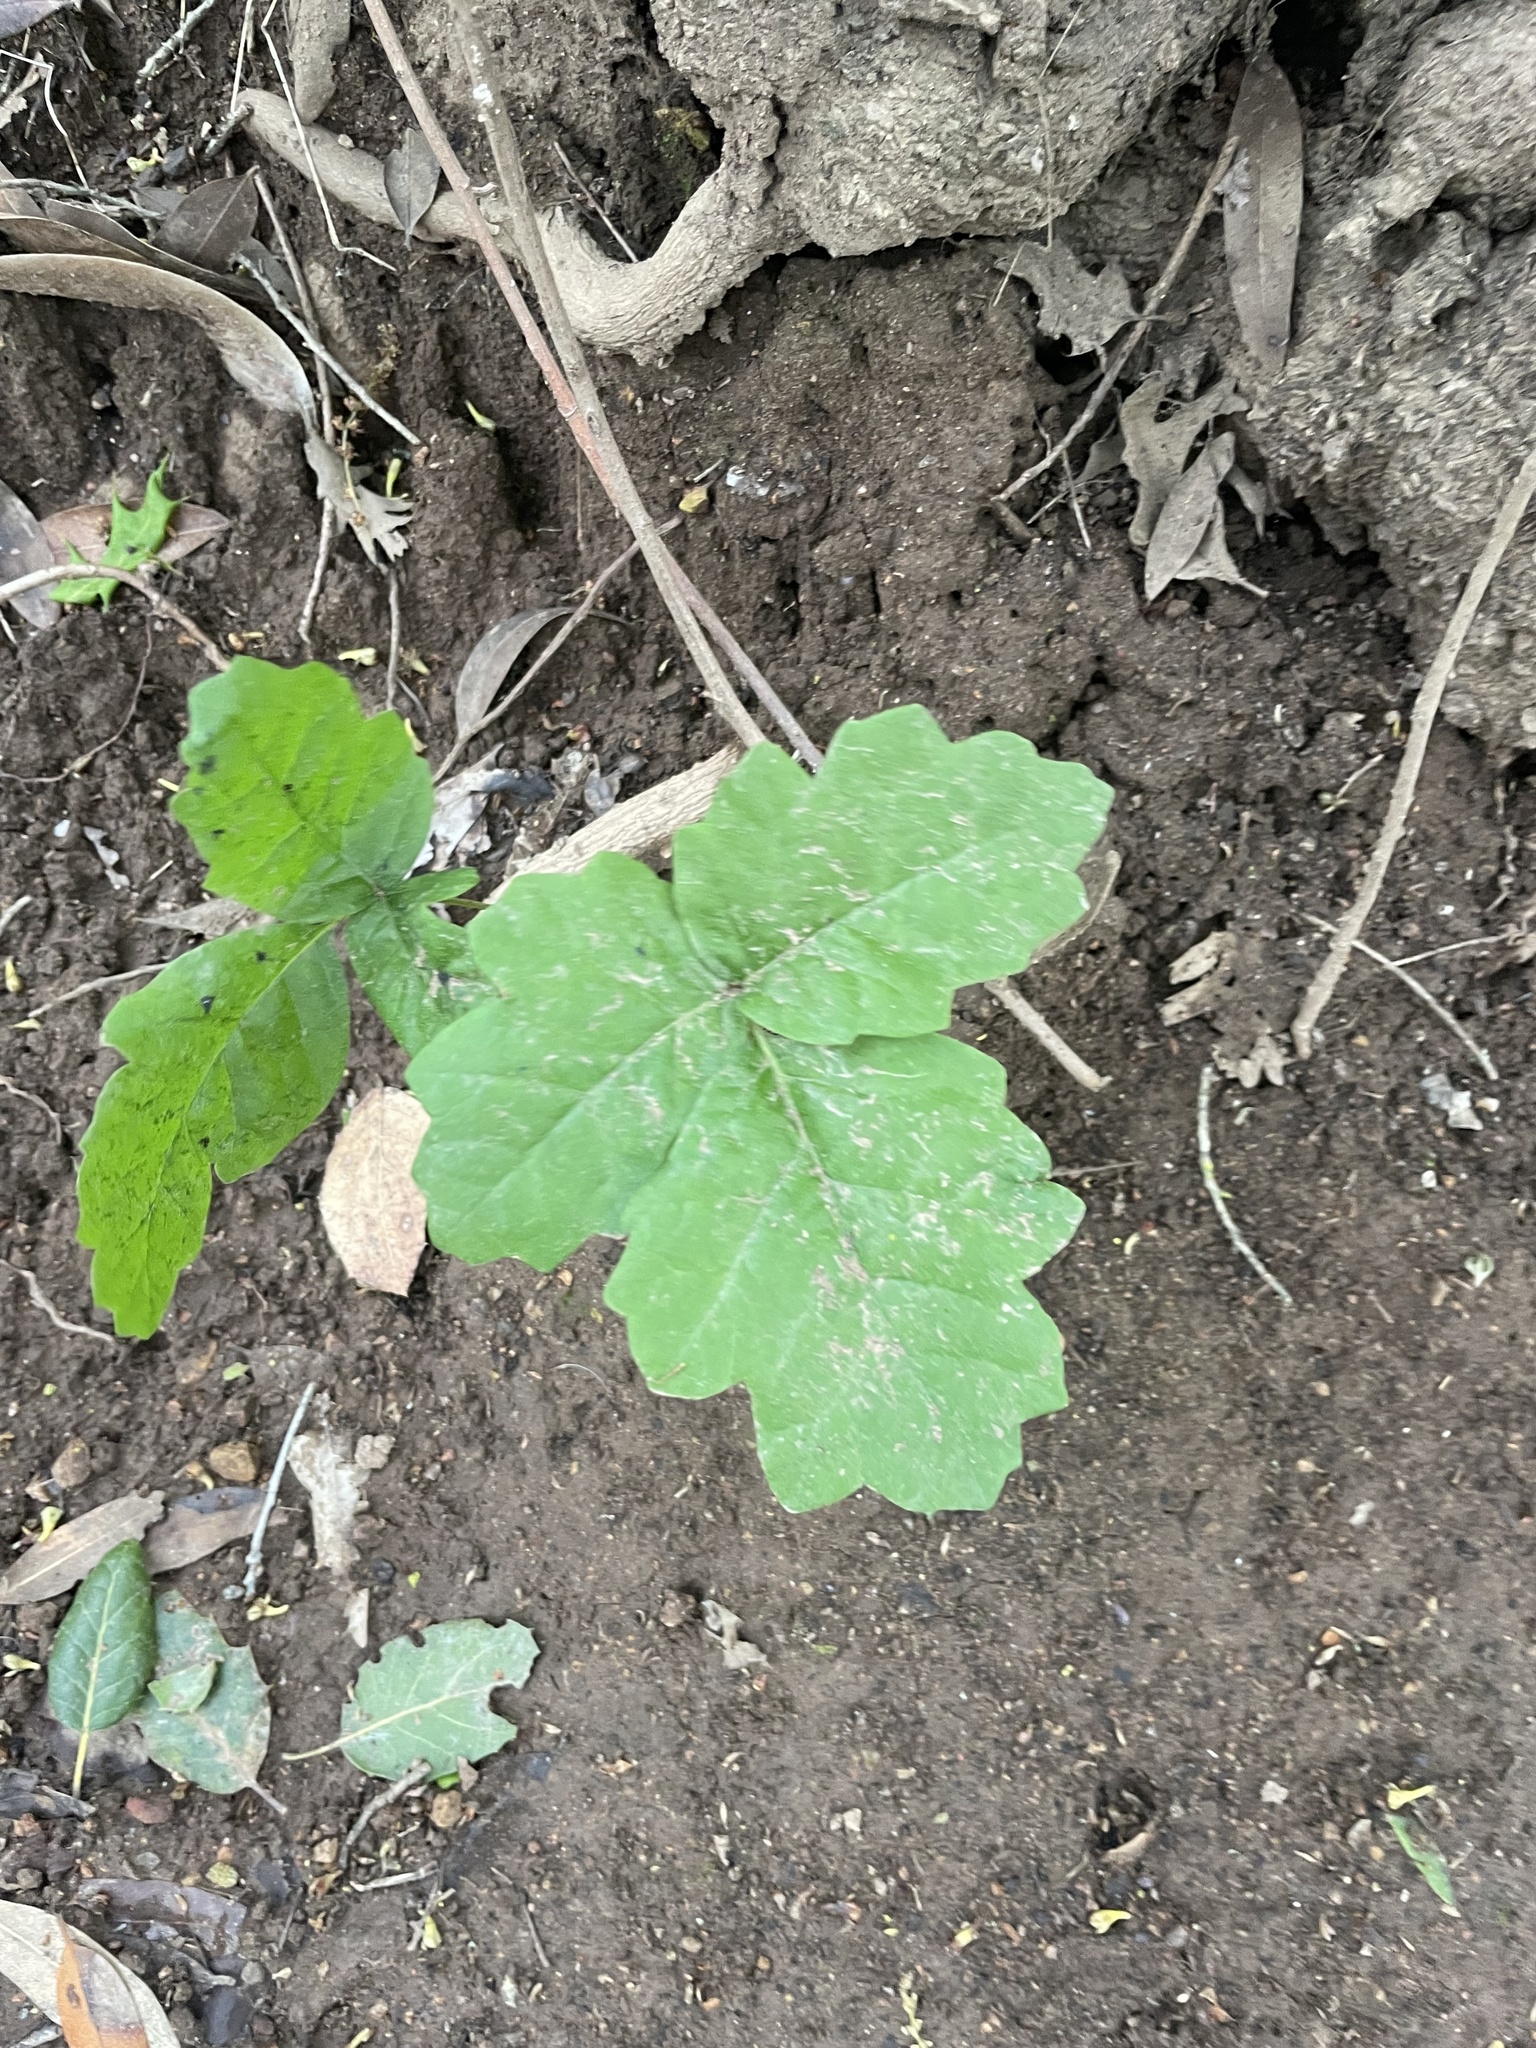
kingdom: Plantae
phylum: Tracheophyta
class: Magnoliopsida
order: Sapindales
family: Anacardiaceae
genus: Toxicodendron
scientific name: Toxicodendron diversilobum
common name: Pacific poison-oak
